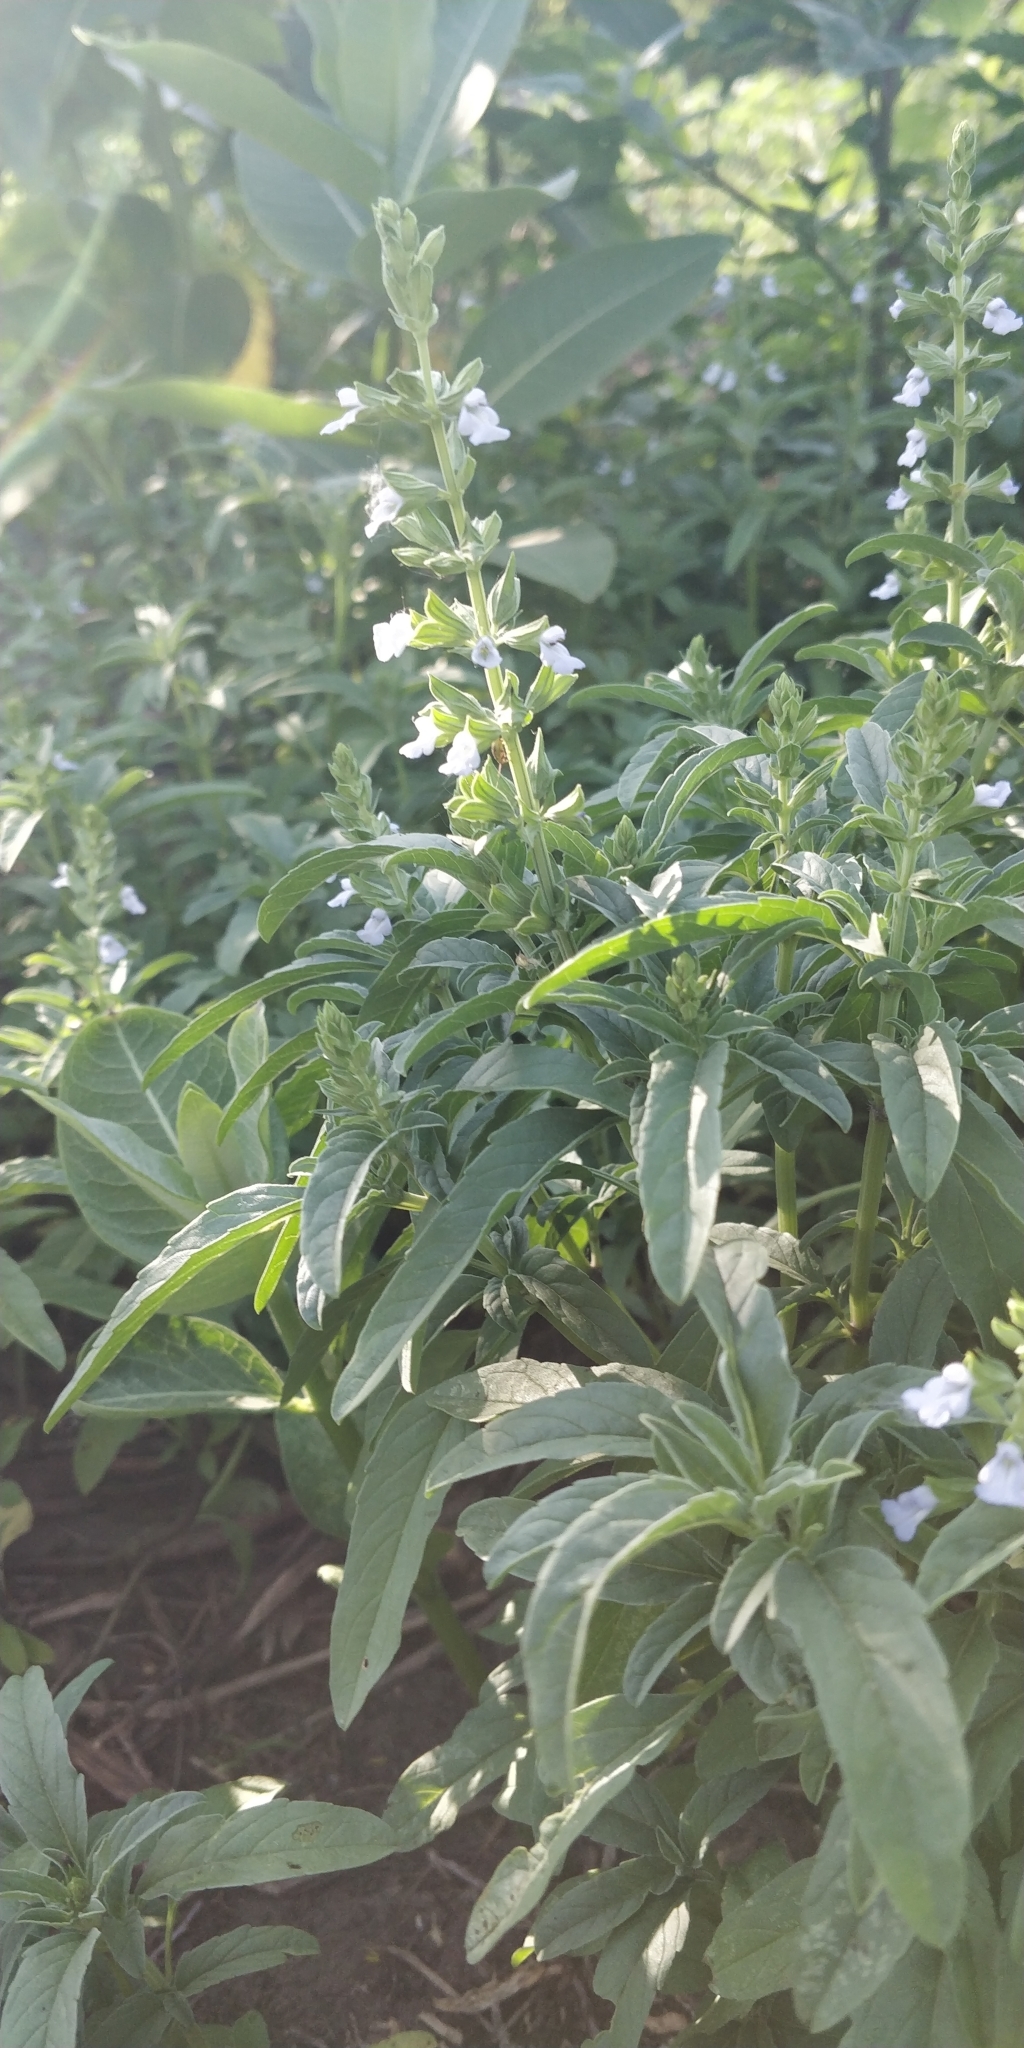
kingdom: Plantae
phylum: Tracheophyta
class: Magnoliopsida
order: Lamiales
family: Lamiaceae
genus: Salvia
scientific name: Salvia reflexa
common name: Mintweed
